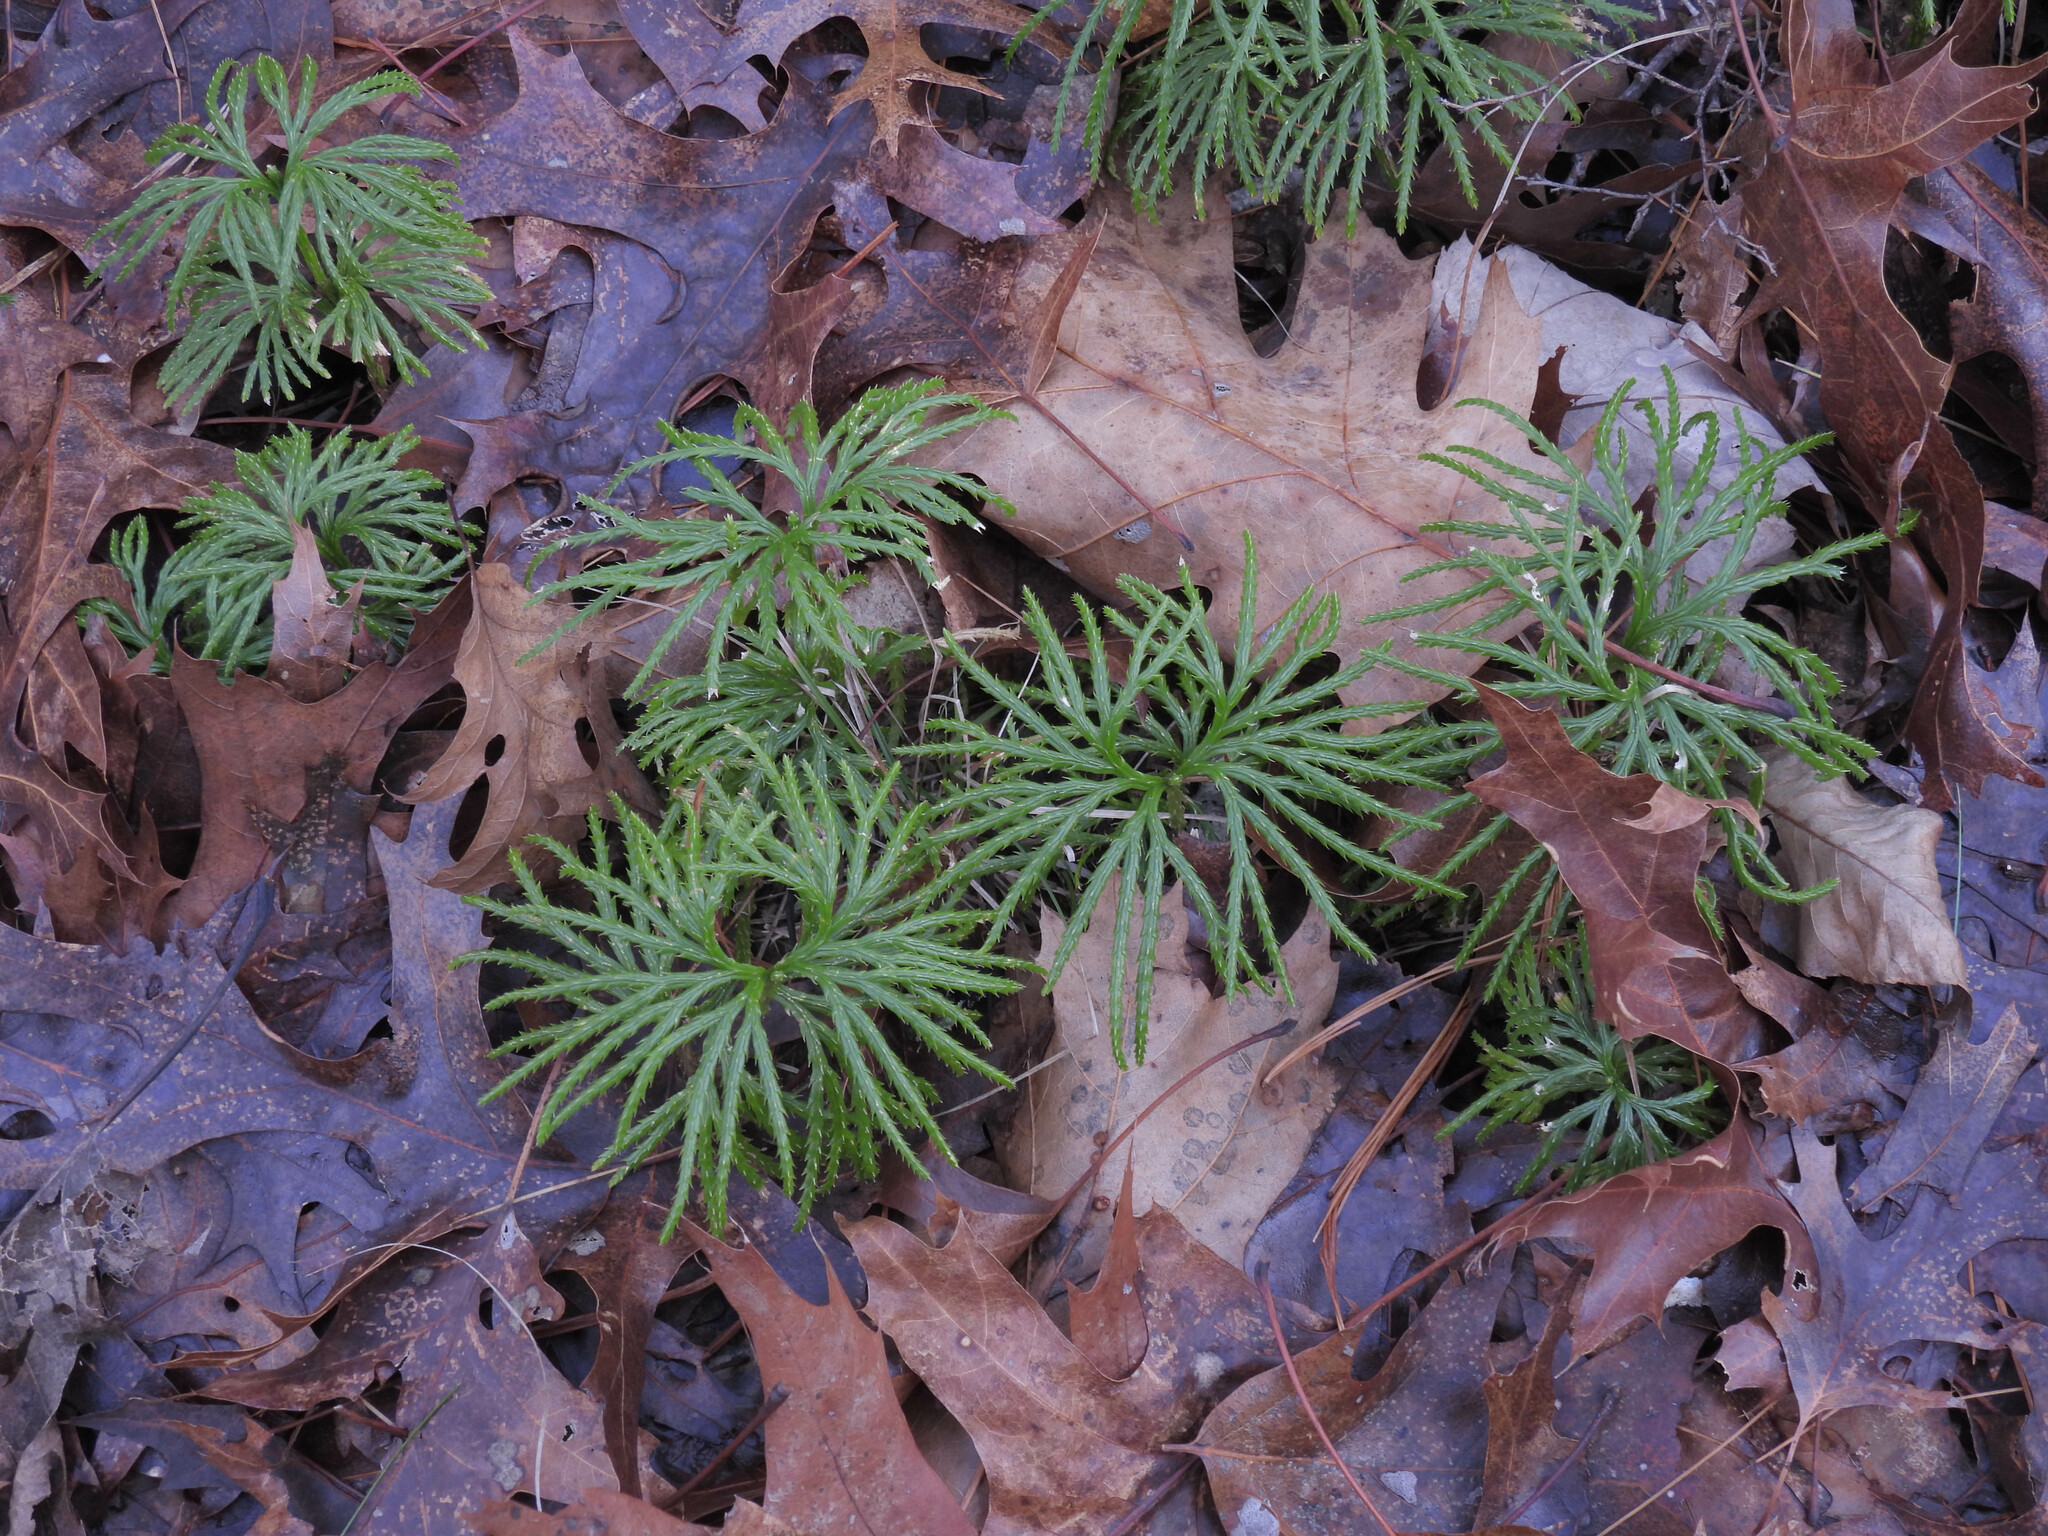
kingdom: Plantae
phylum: Tracheophyta
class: Lycopodiopsida
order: Lycopodiales
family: Lycopodiaceae
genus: Diphasiastrum
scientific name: Diphasiastrum digitatum
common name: Southern running-pine
